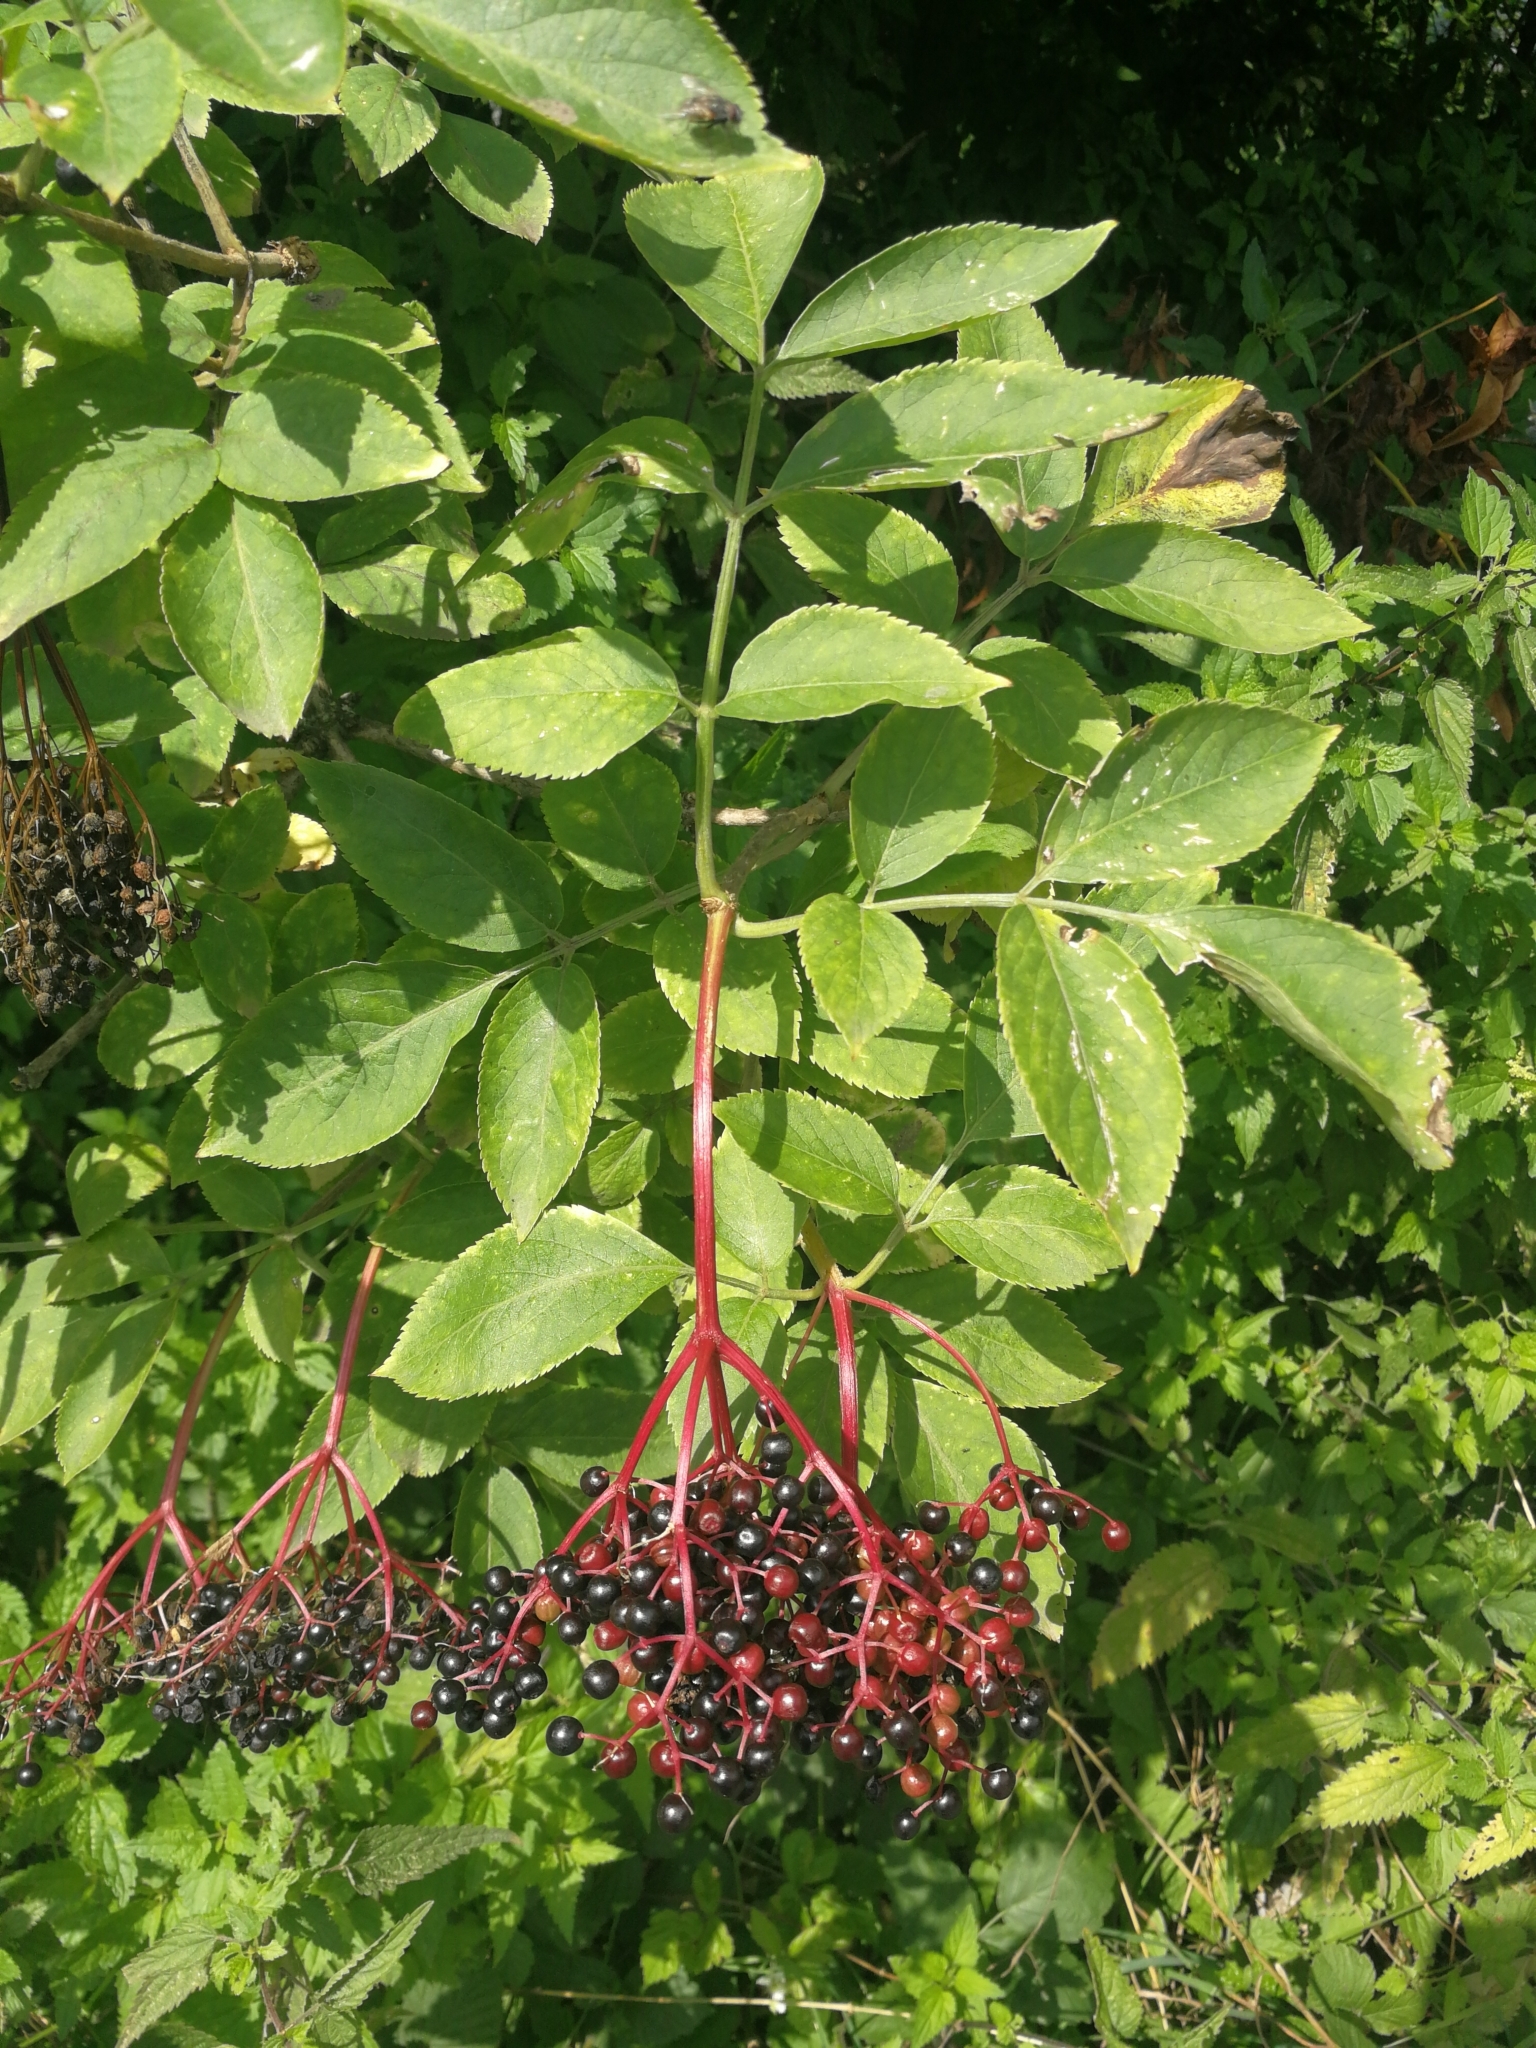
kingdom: Plantae
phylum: Tracheophyta
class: Magnoliopsida
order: Dipsacales
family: Viburnaceae
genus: Sambucus
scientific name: Sambucus nigra
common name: Elder
